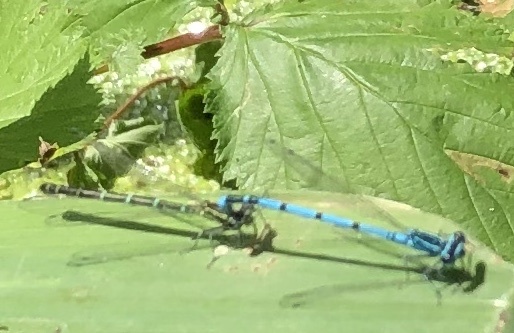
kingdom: Animalia
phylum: Arthropoda
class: Insecta
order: Odonata
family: Coenagrionidae
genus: Coenagrion
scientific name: Coenagrion puella
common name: Azure damselfly
